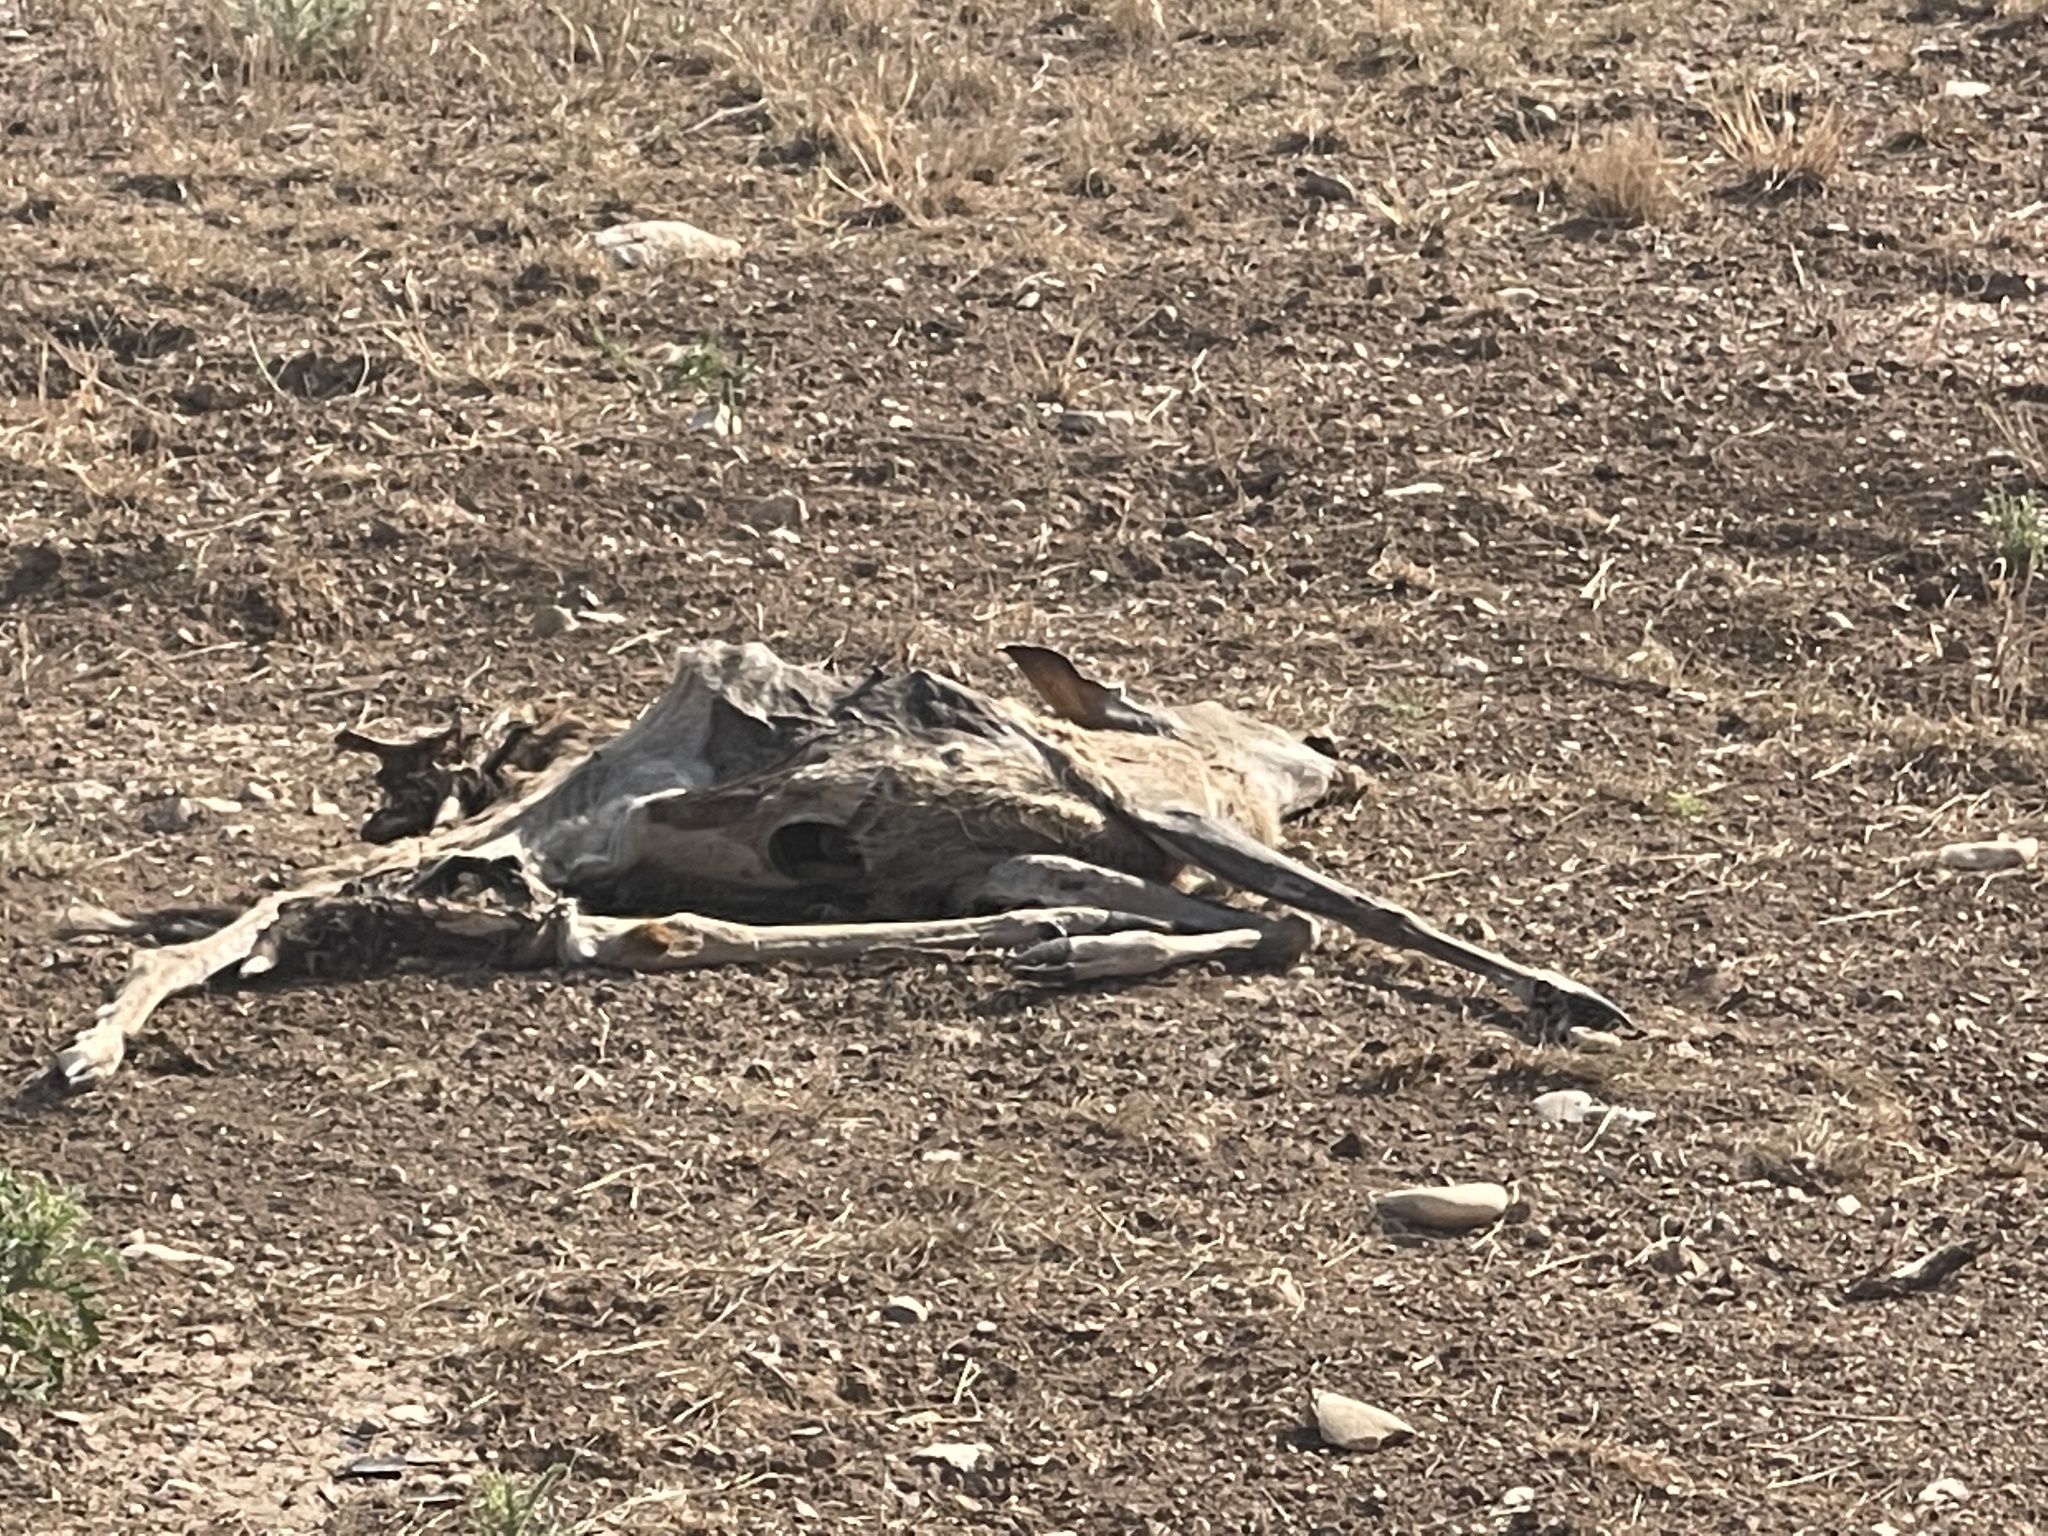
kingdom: Animalia
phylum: Chordata
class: Mammalia
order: Artiodactyla
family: Cervidae
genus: Odocoileus
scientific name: Odocoileus virginianus
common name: White-tailed deer
